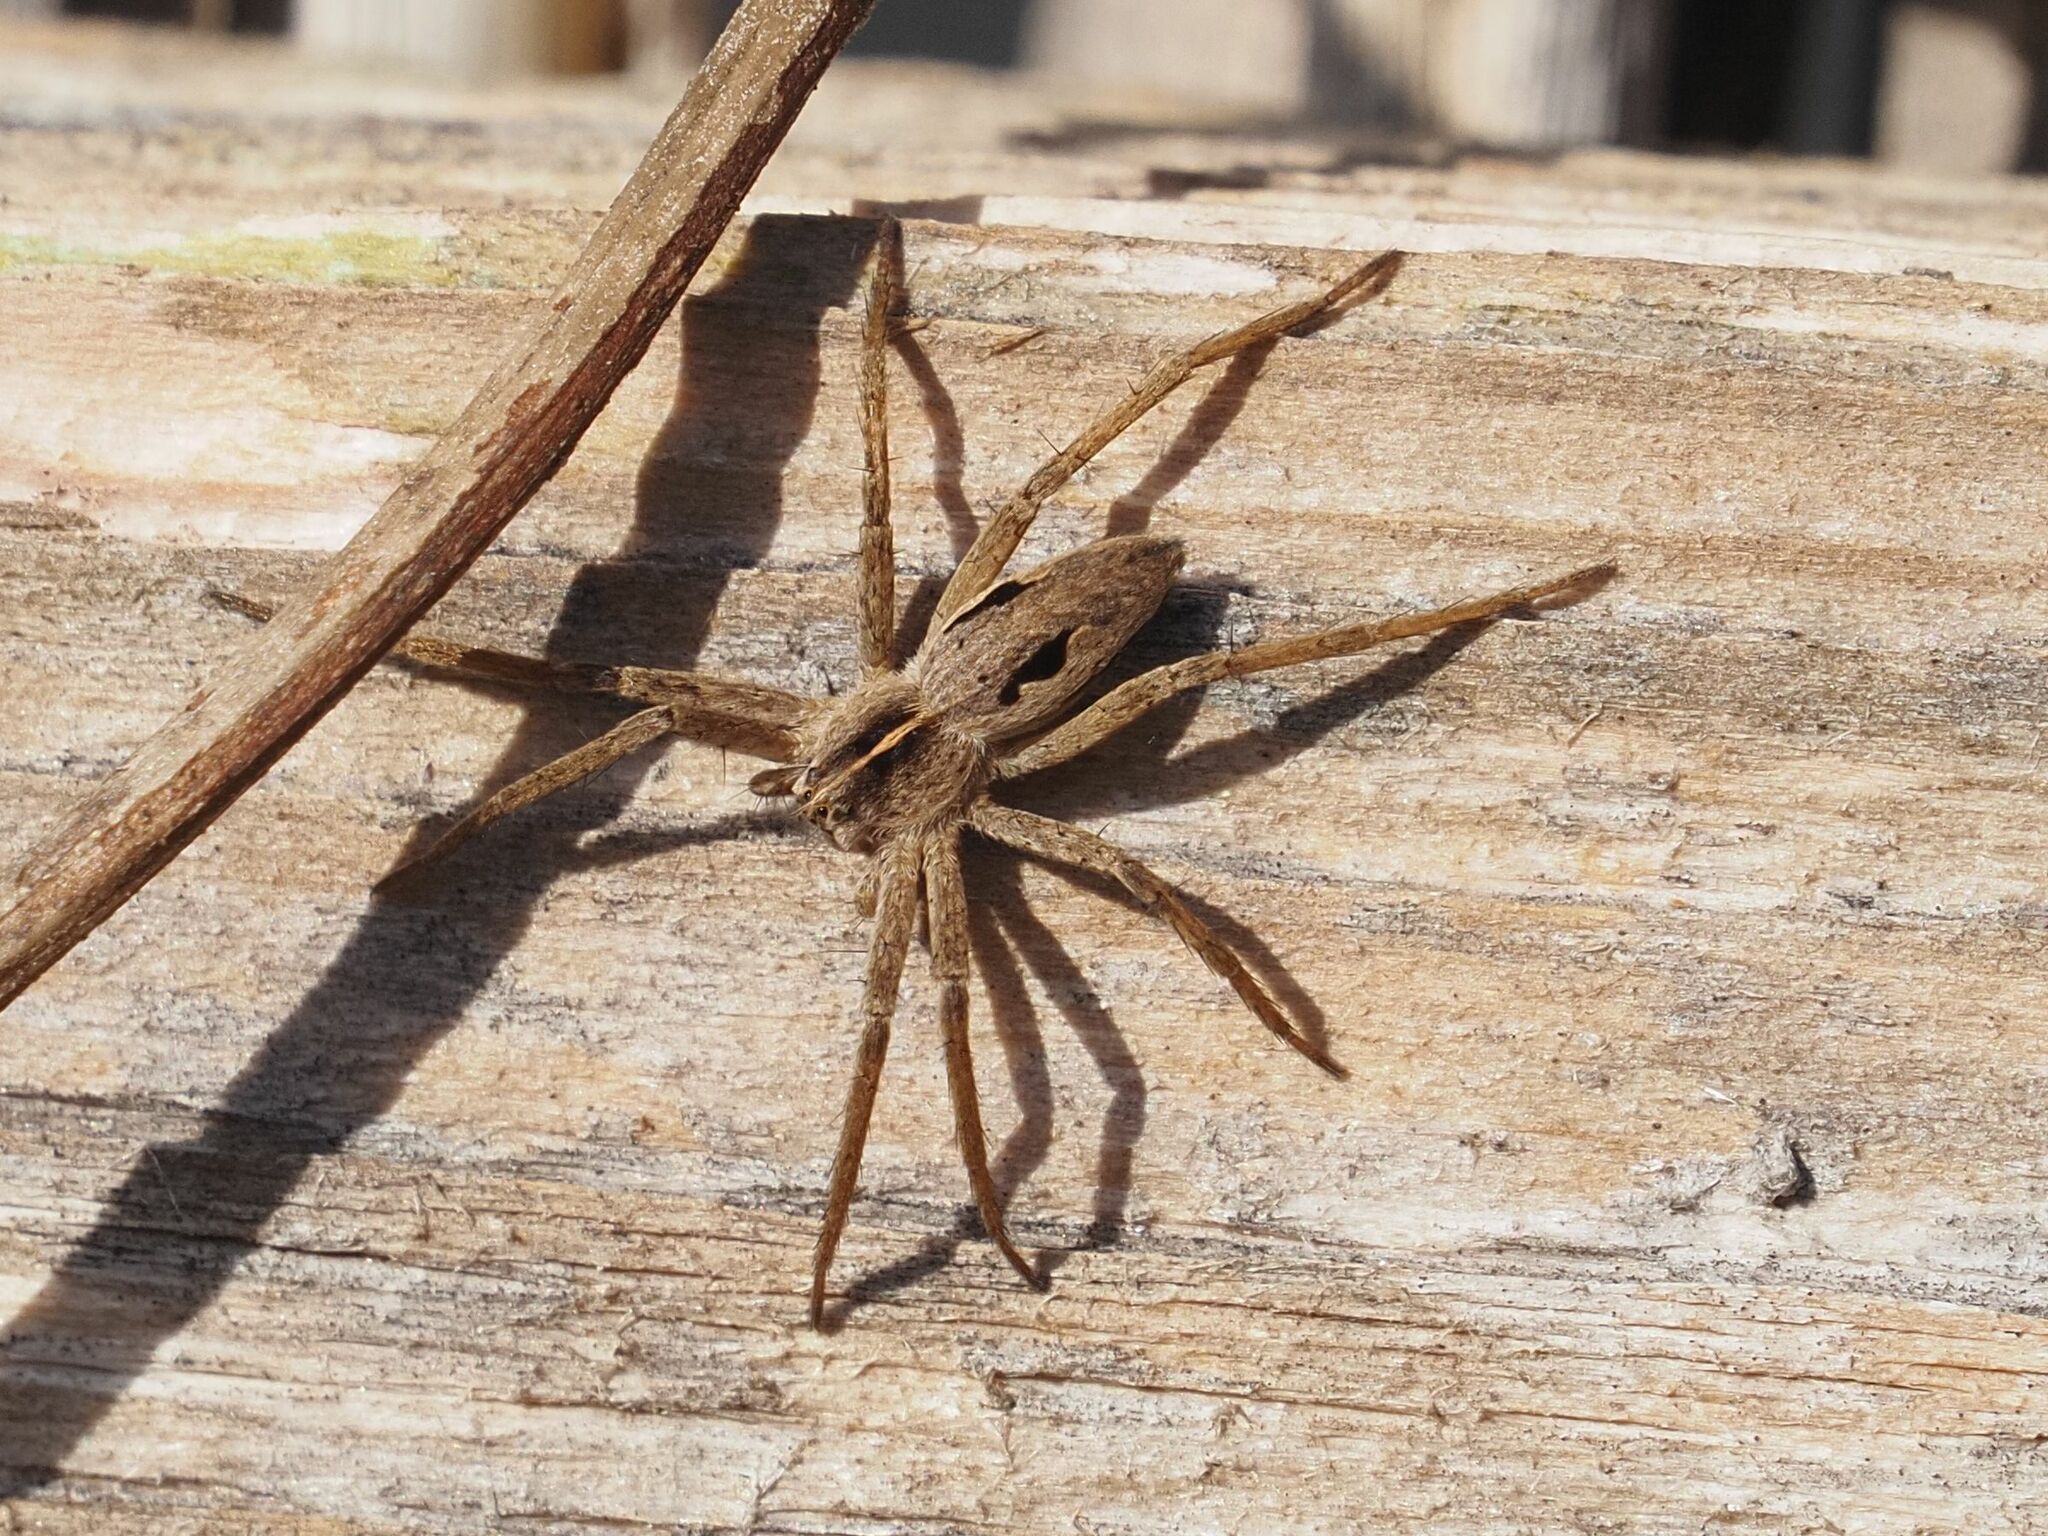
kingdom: Animalia
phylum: Arthropoda
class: Arachnida
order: Araneae
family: Pisauridae
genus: Pisaura
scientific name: Pisaura mirabilis
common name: Tent spider
